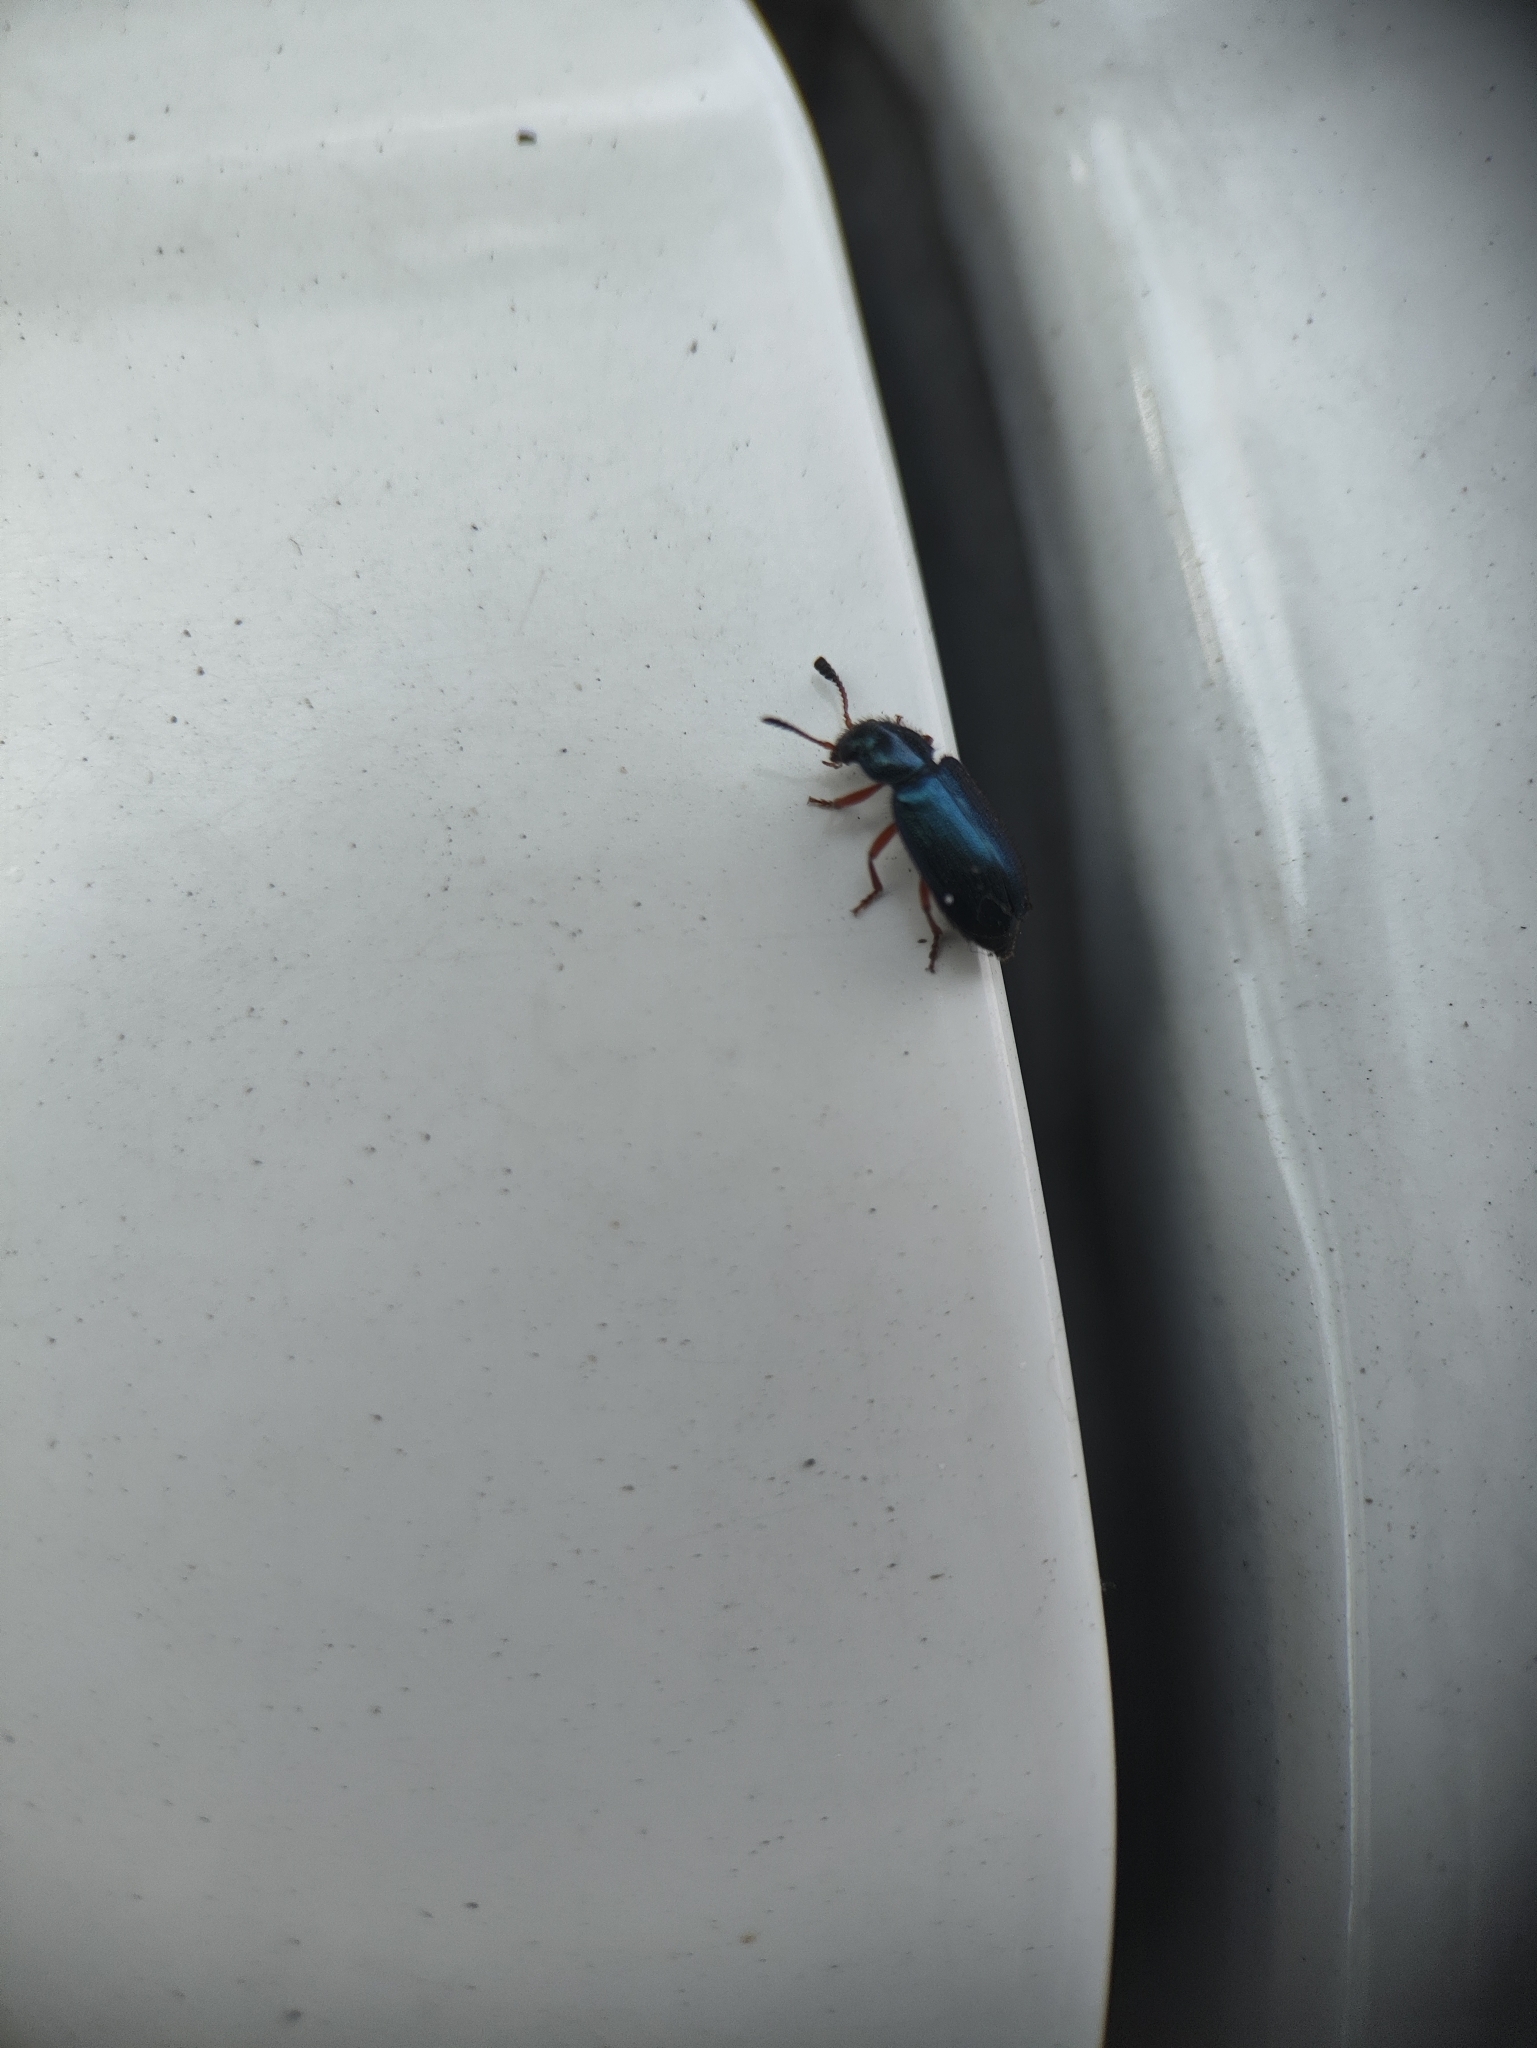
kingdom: Animalia
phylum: Arthropoda
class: Insecta
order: Coleoptera
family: Cleridae
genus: Necrobia
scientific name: Necrobia rufipes
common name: Red-legged ham beetle
